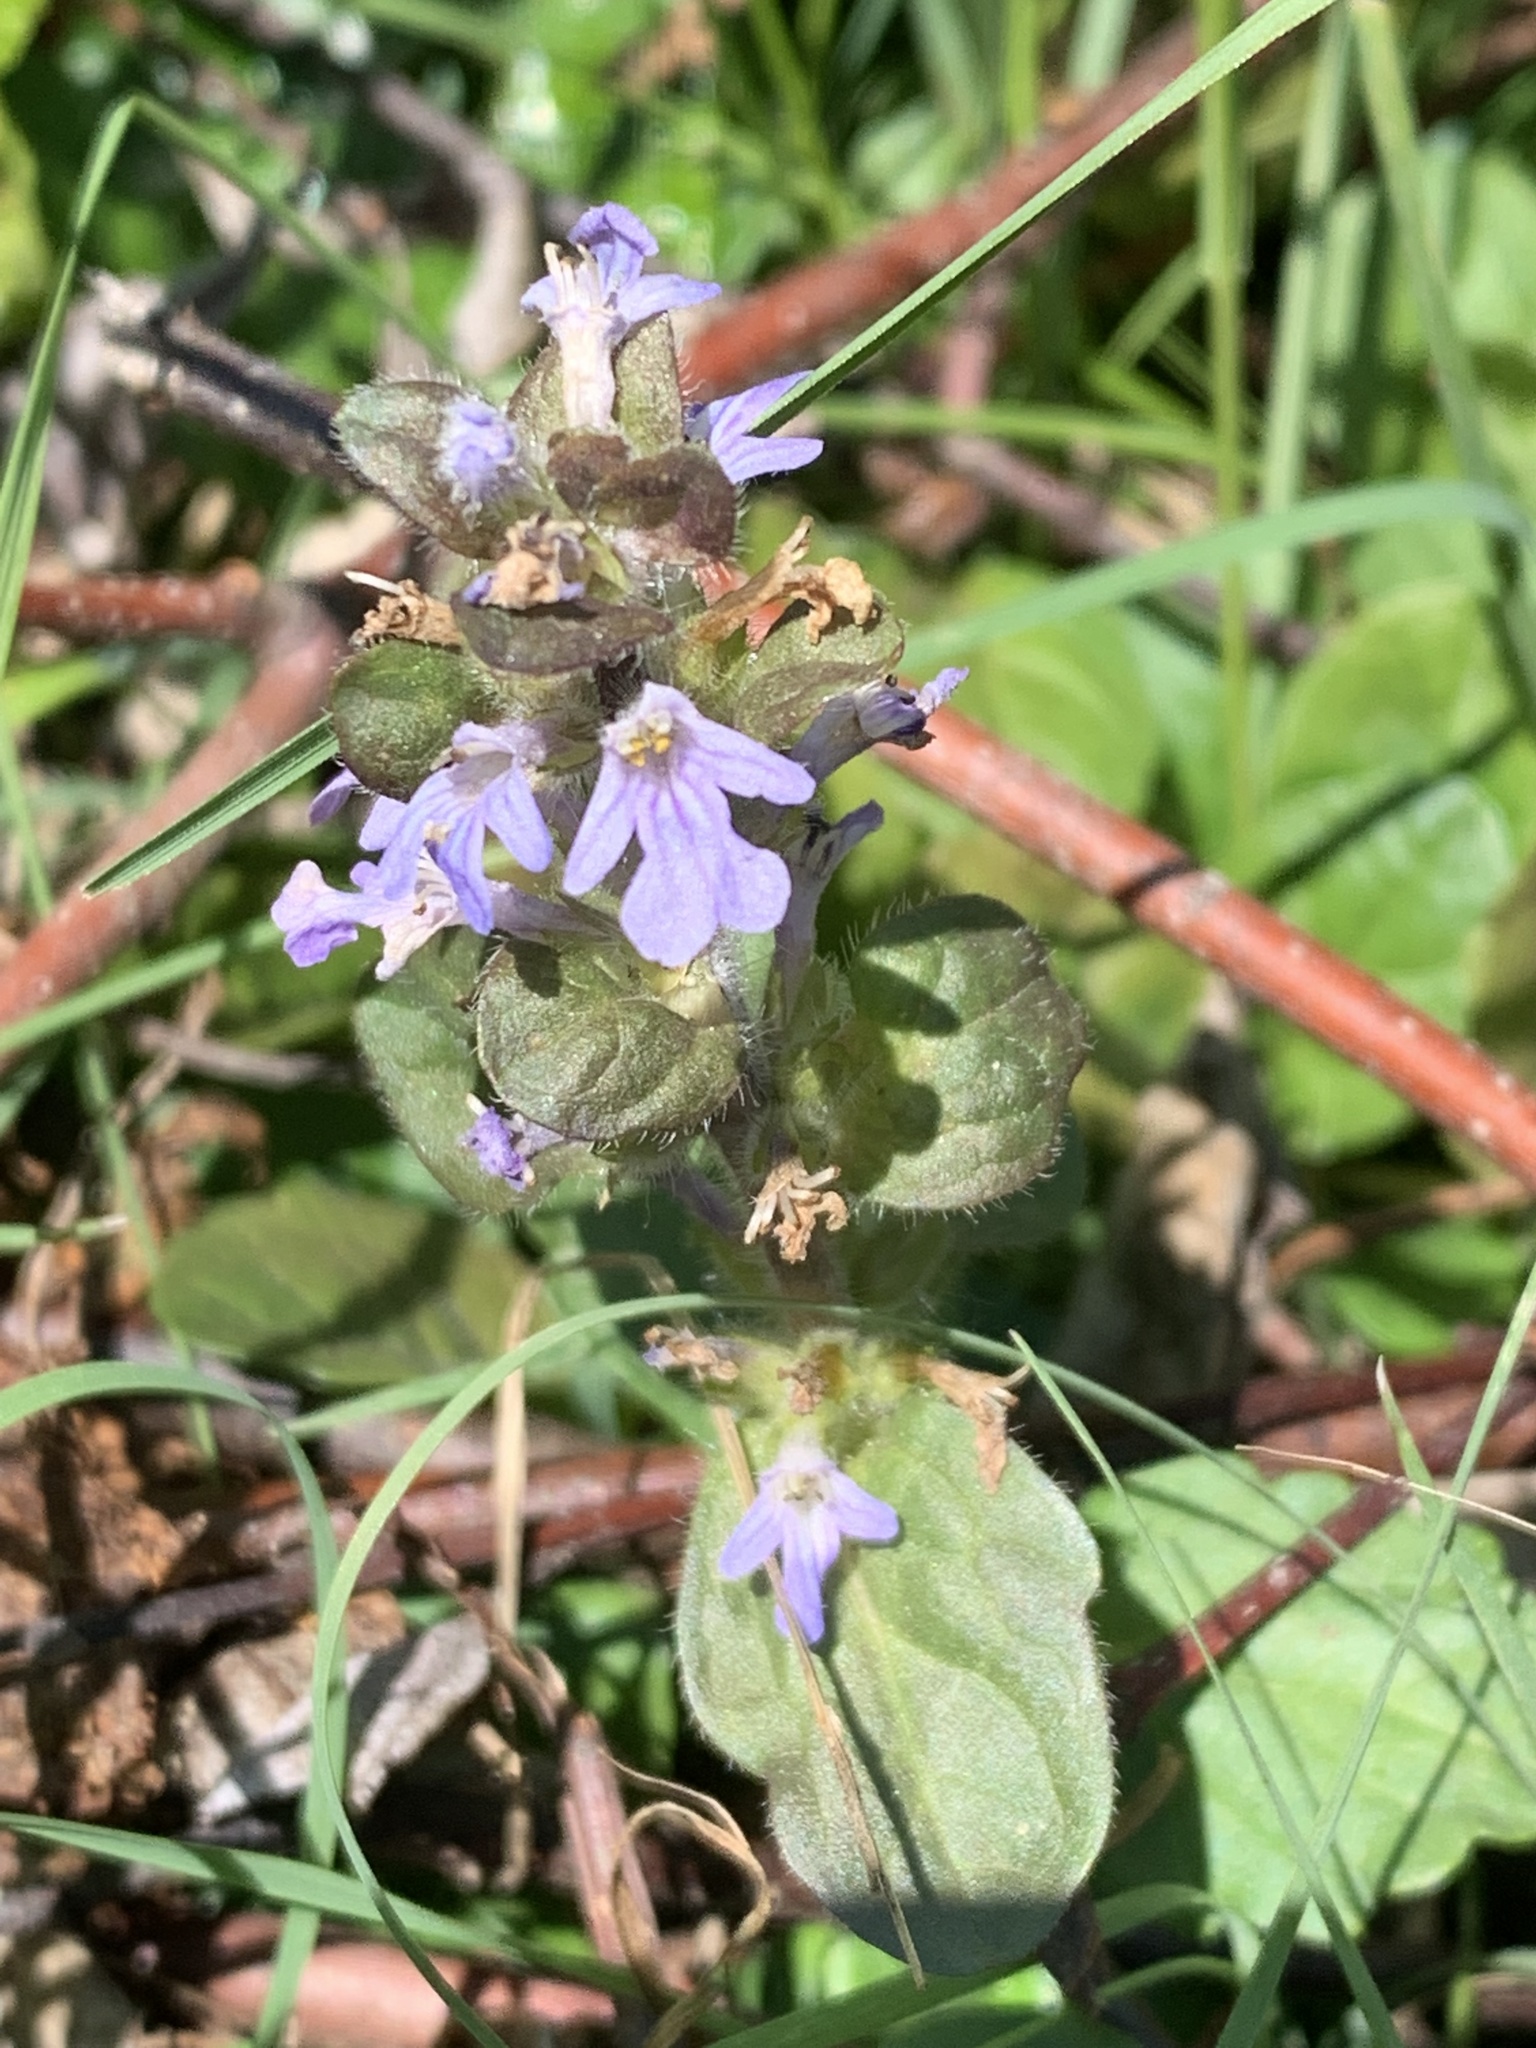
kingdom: Plantae
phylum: Tracheophyta
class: Magnoliopsida
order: Lamiales
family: Lamiaceae
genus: Ajuga
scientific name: Ajuga reptans
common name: Bugle
